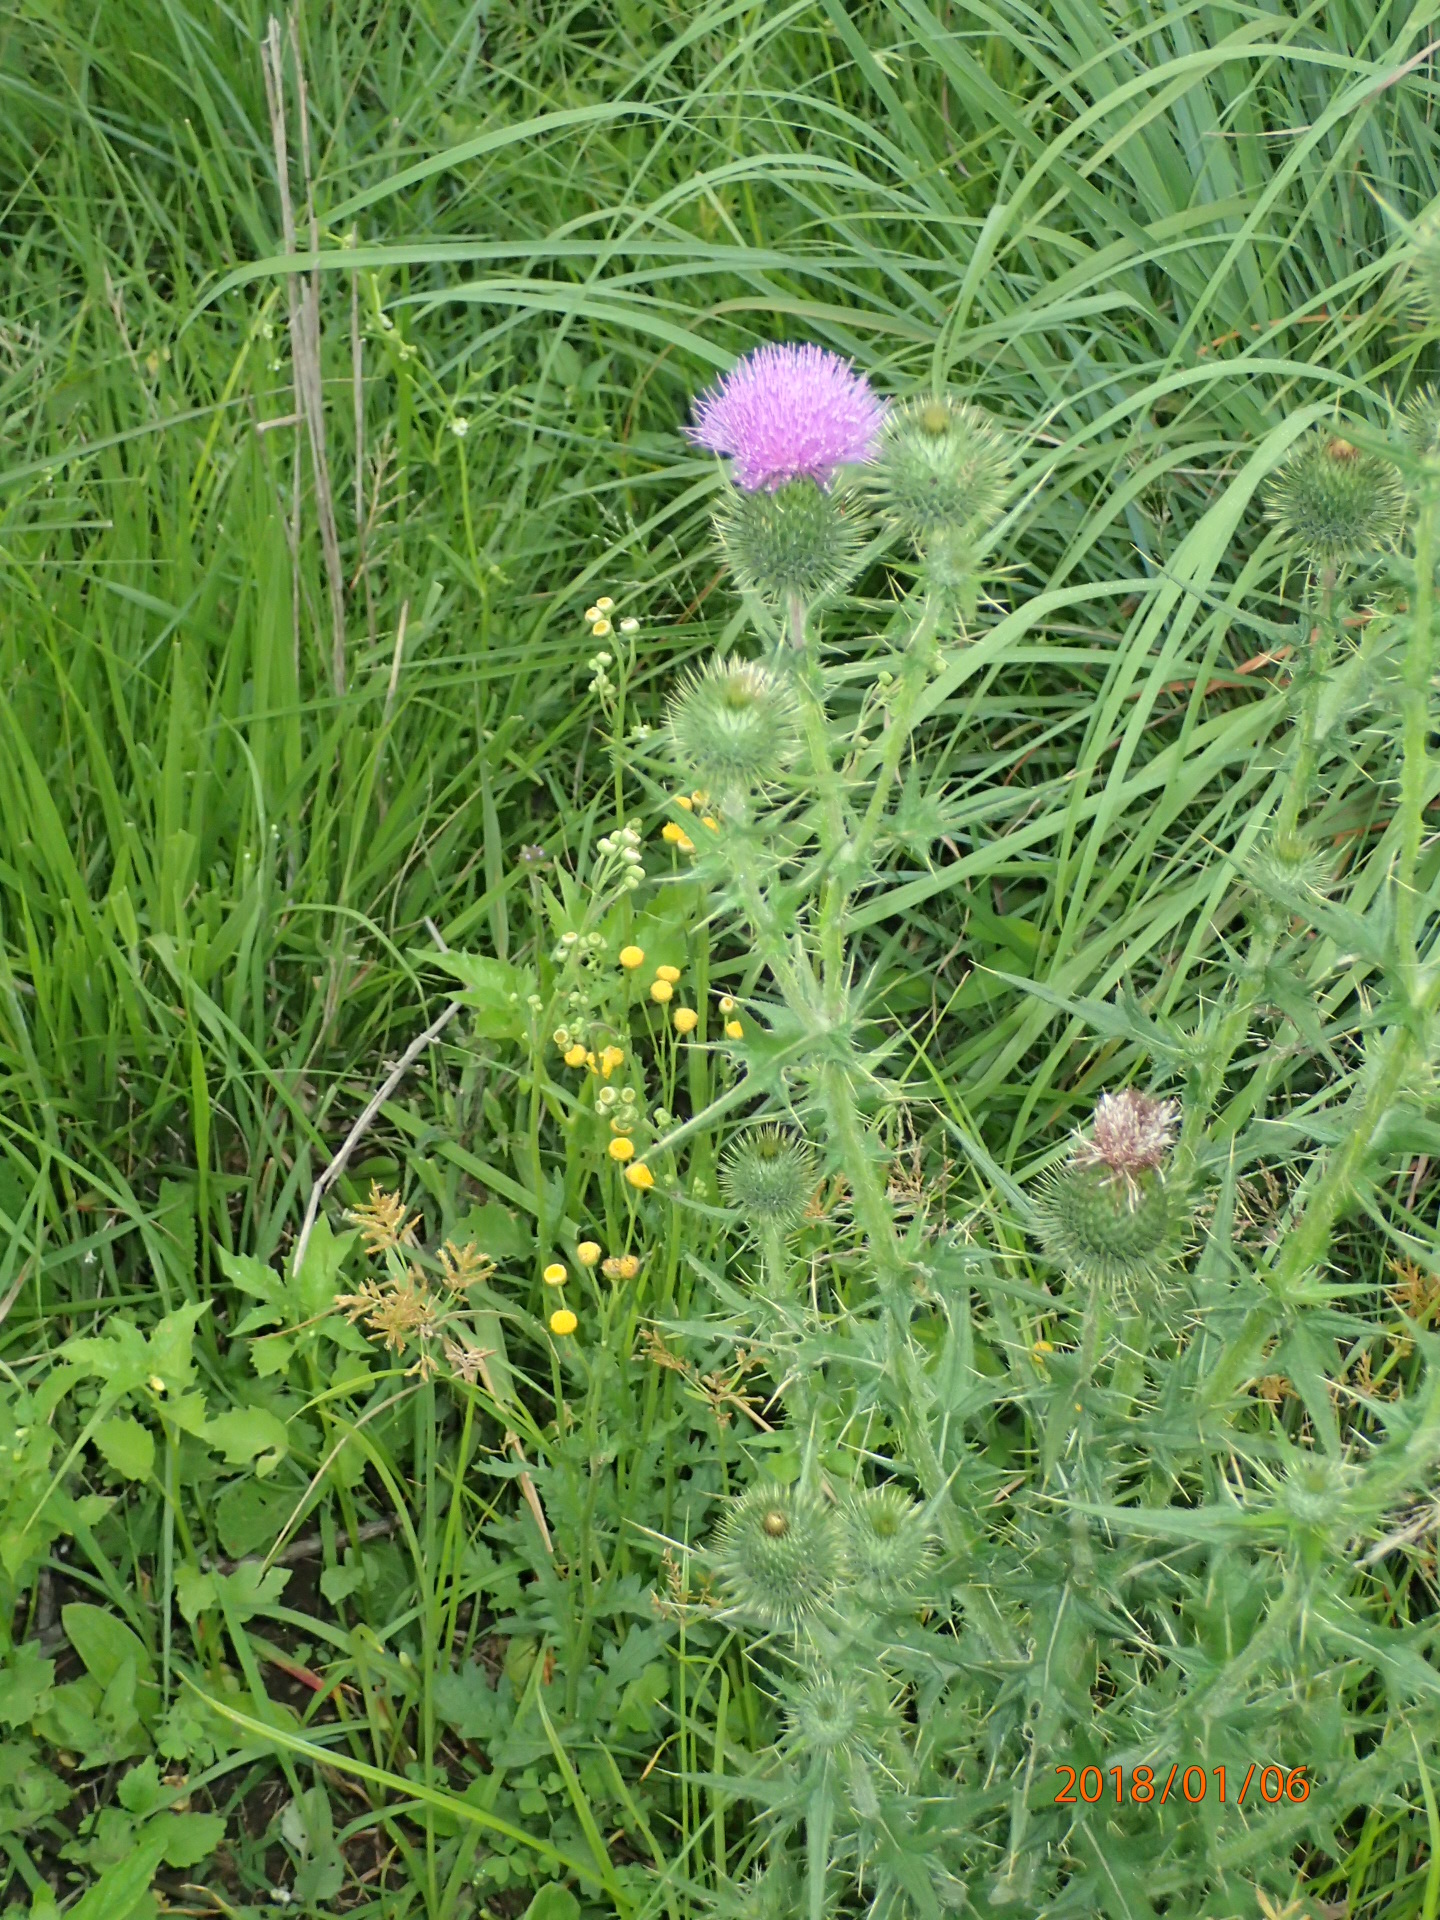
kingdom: Plantae
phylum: Tracheophyta
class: Magnoliopsida
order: Asterales
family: Asteraceae
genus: Cirsium
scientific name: Cirsium vulgare
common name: Bull thistle
